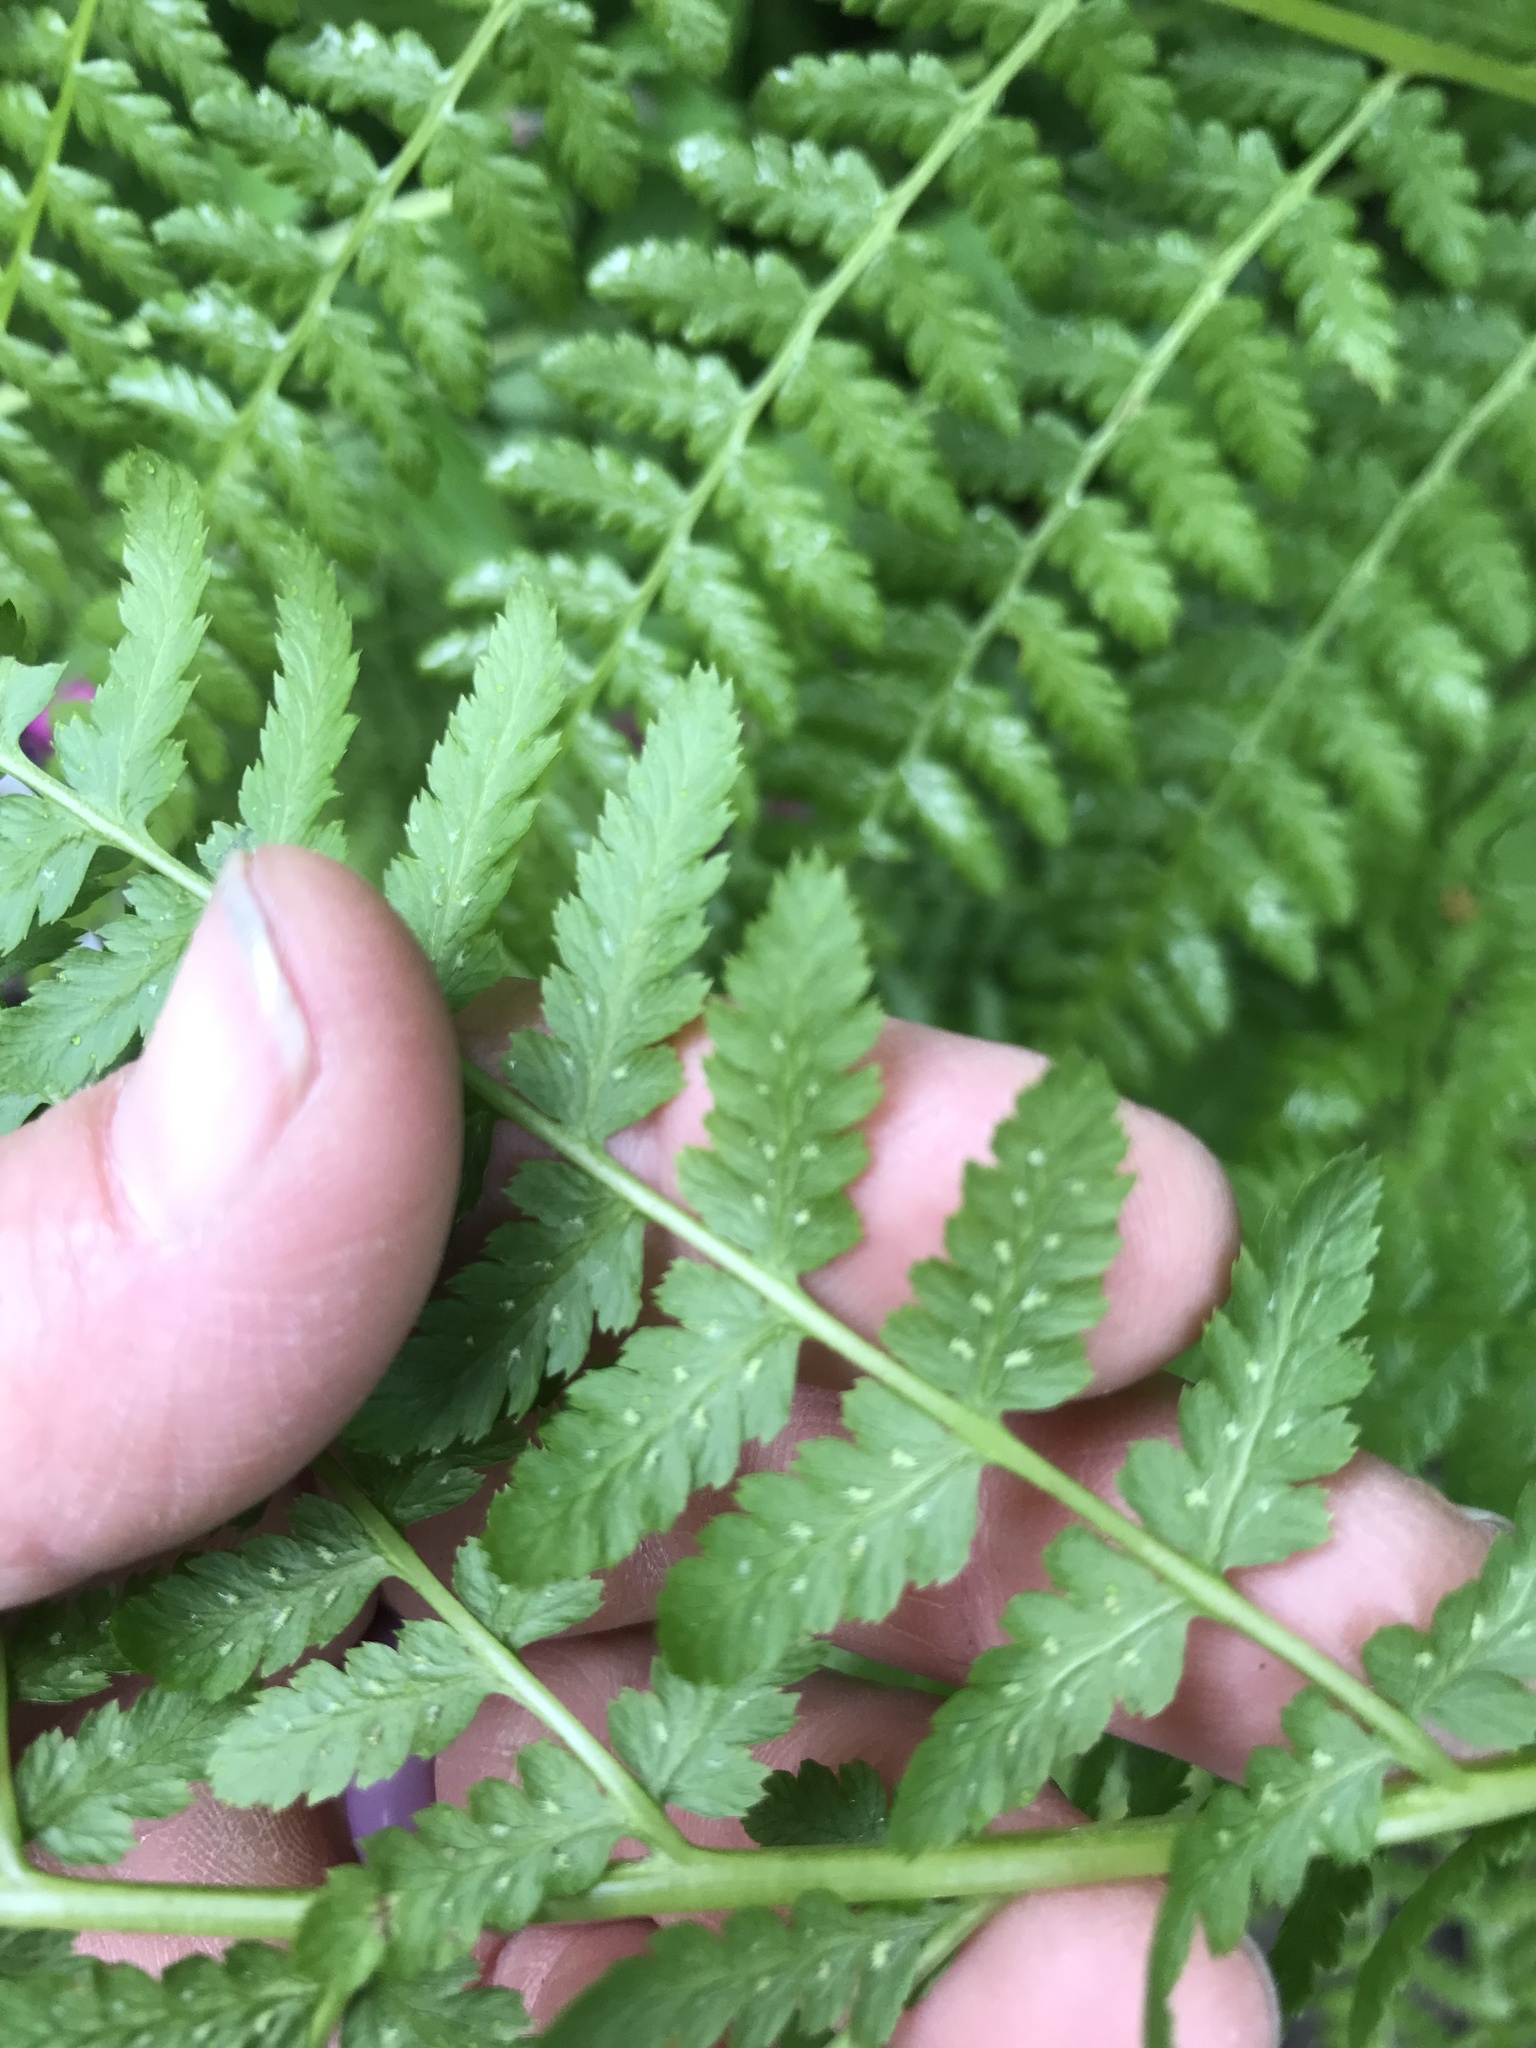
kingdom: Plantae
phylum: Tracheophyta
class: Polypodiopsida
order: Polypodiales
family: Athyriaceae
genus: Athyrium
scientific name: Athyrium filix-femina
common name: Lady fern
